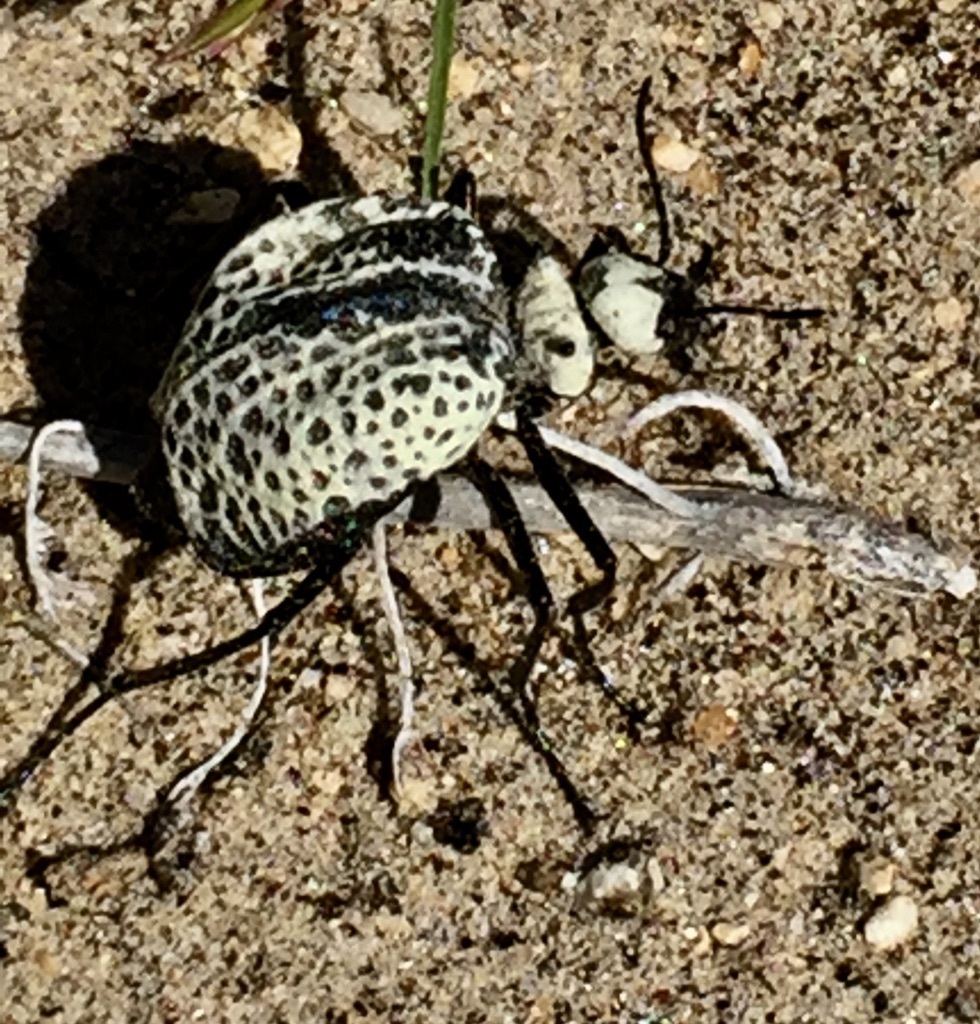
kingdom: Animalia
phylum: Arthropoda
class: Insecta
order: Coleoptera
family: Meloidae
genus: Cysteodemus
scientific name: Cysteodemus armatus
